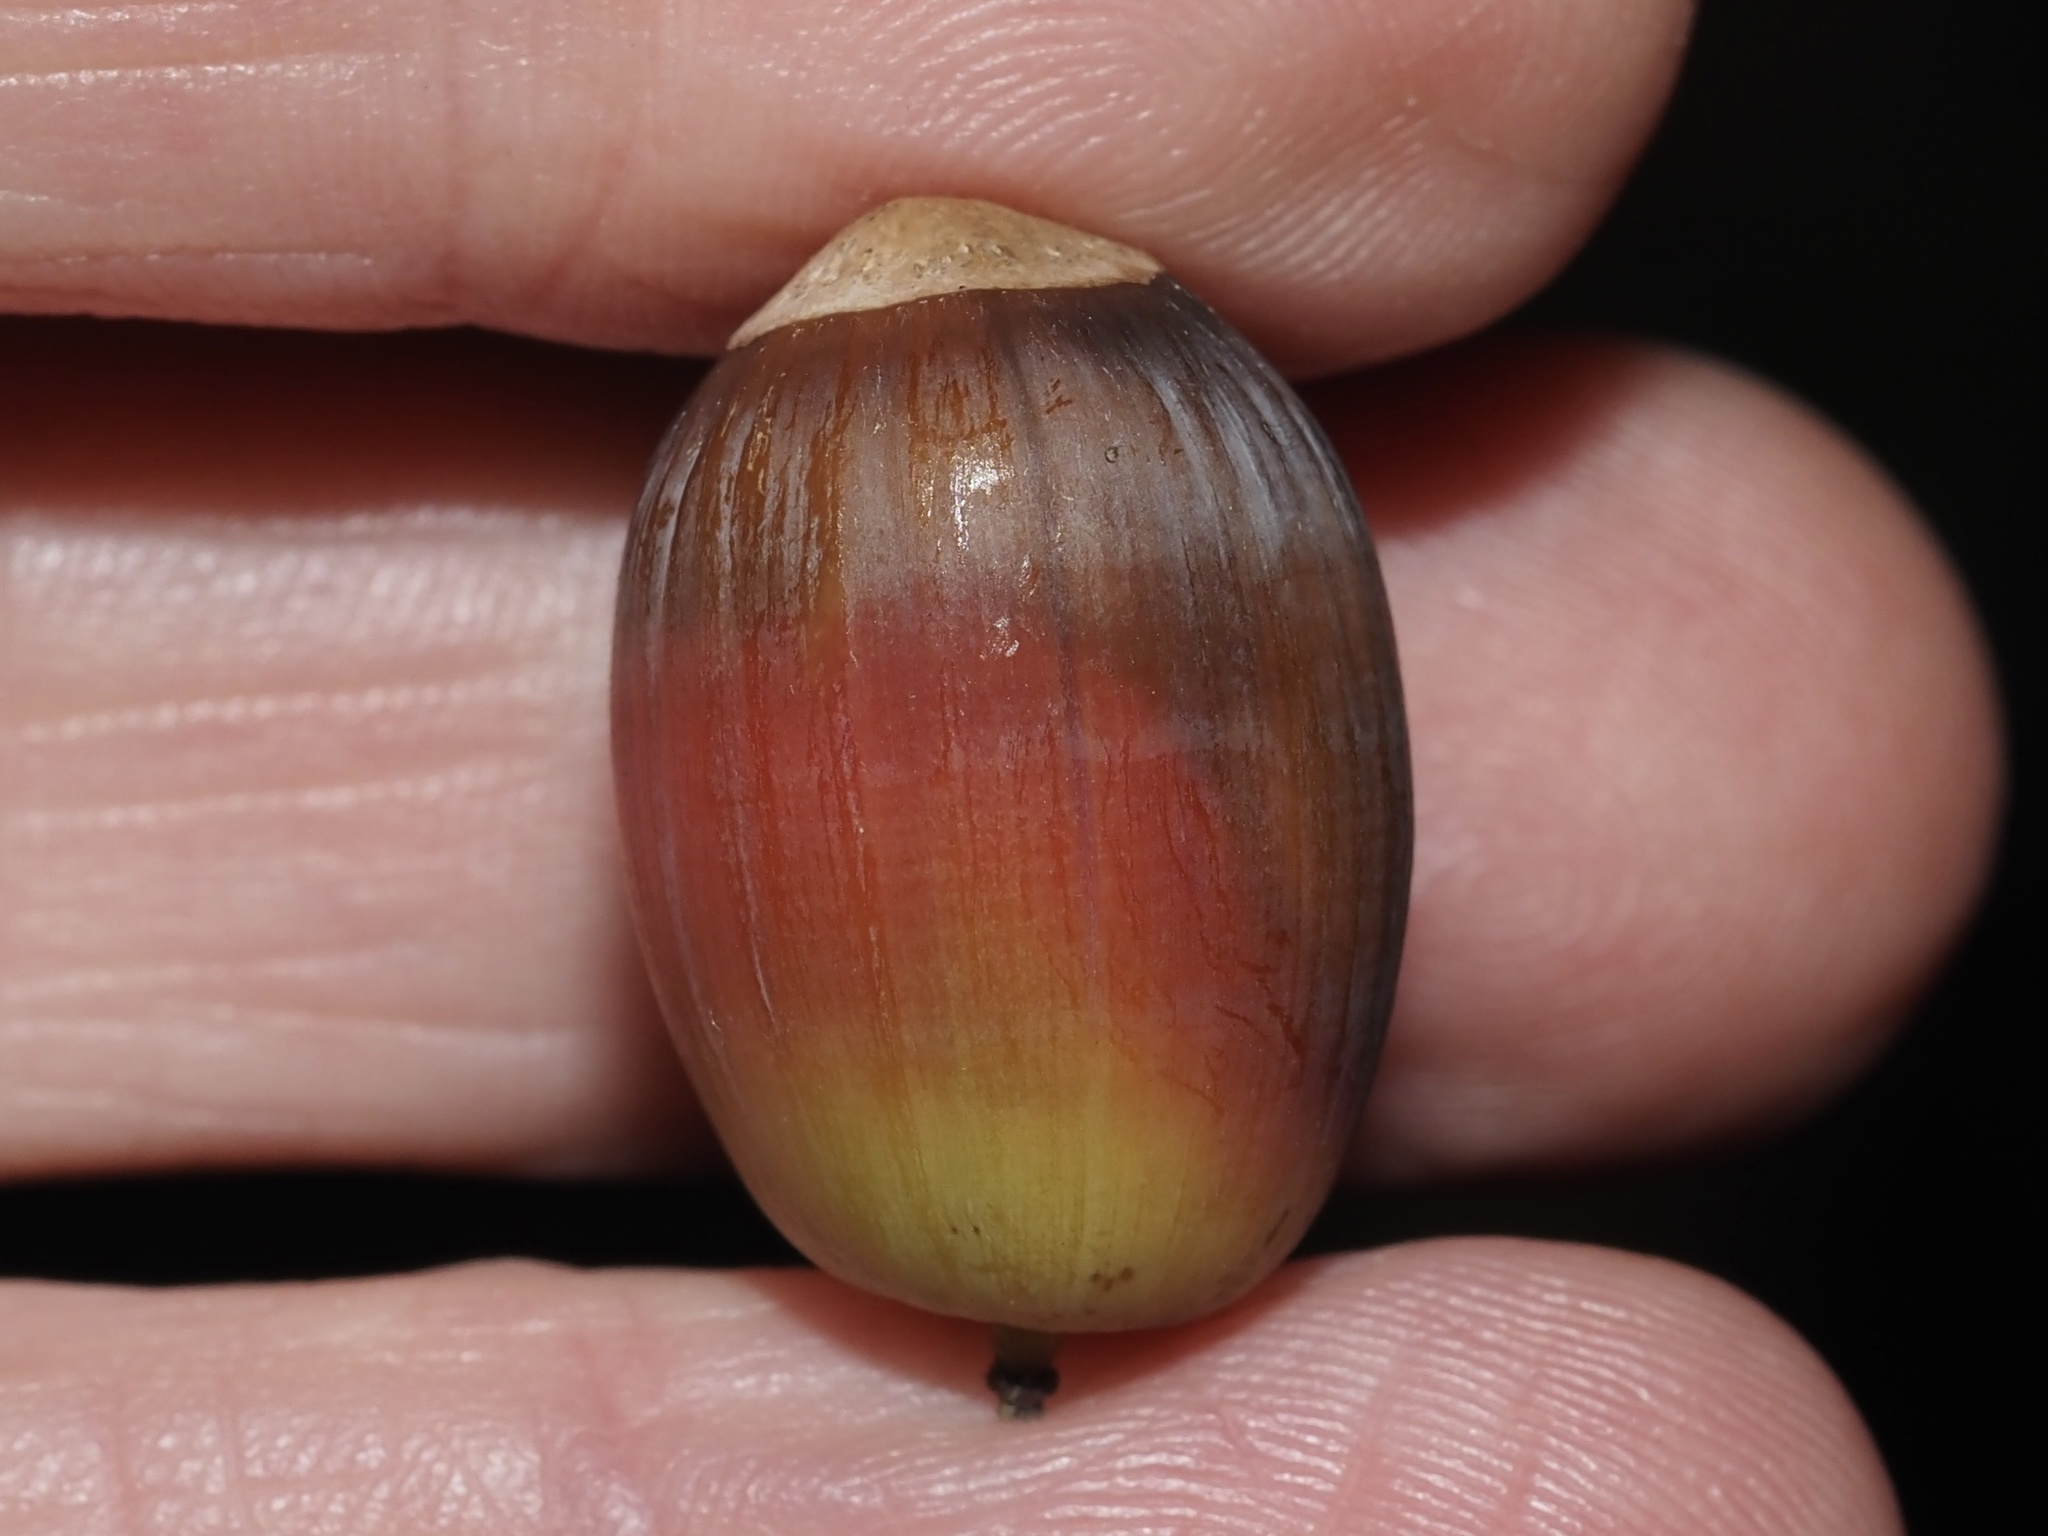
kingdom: Plantae
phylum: Tracheophyta
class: Magnoliopsida
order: Fagales
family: Fagaceae
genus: Quercus
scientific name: Quercus alba
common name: White oak
